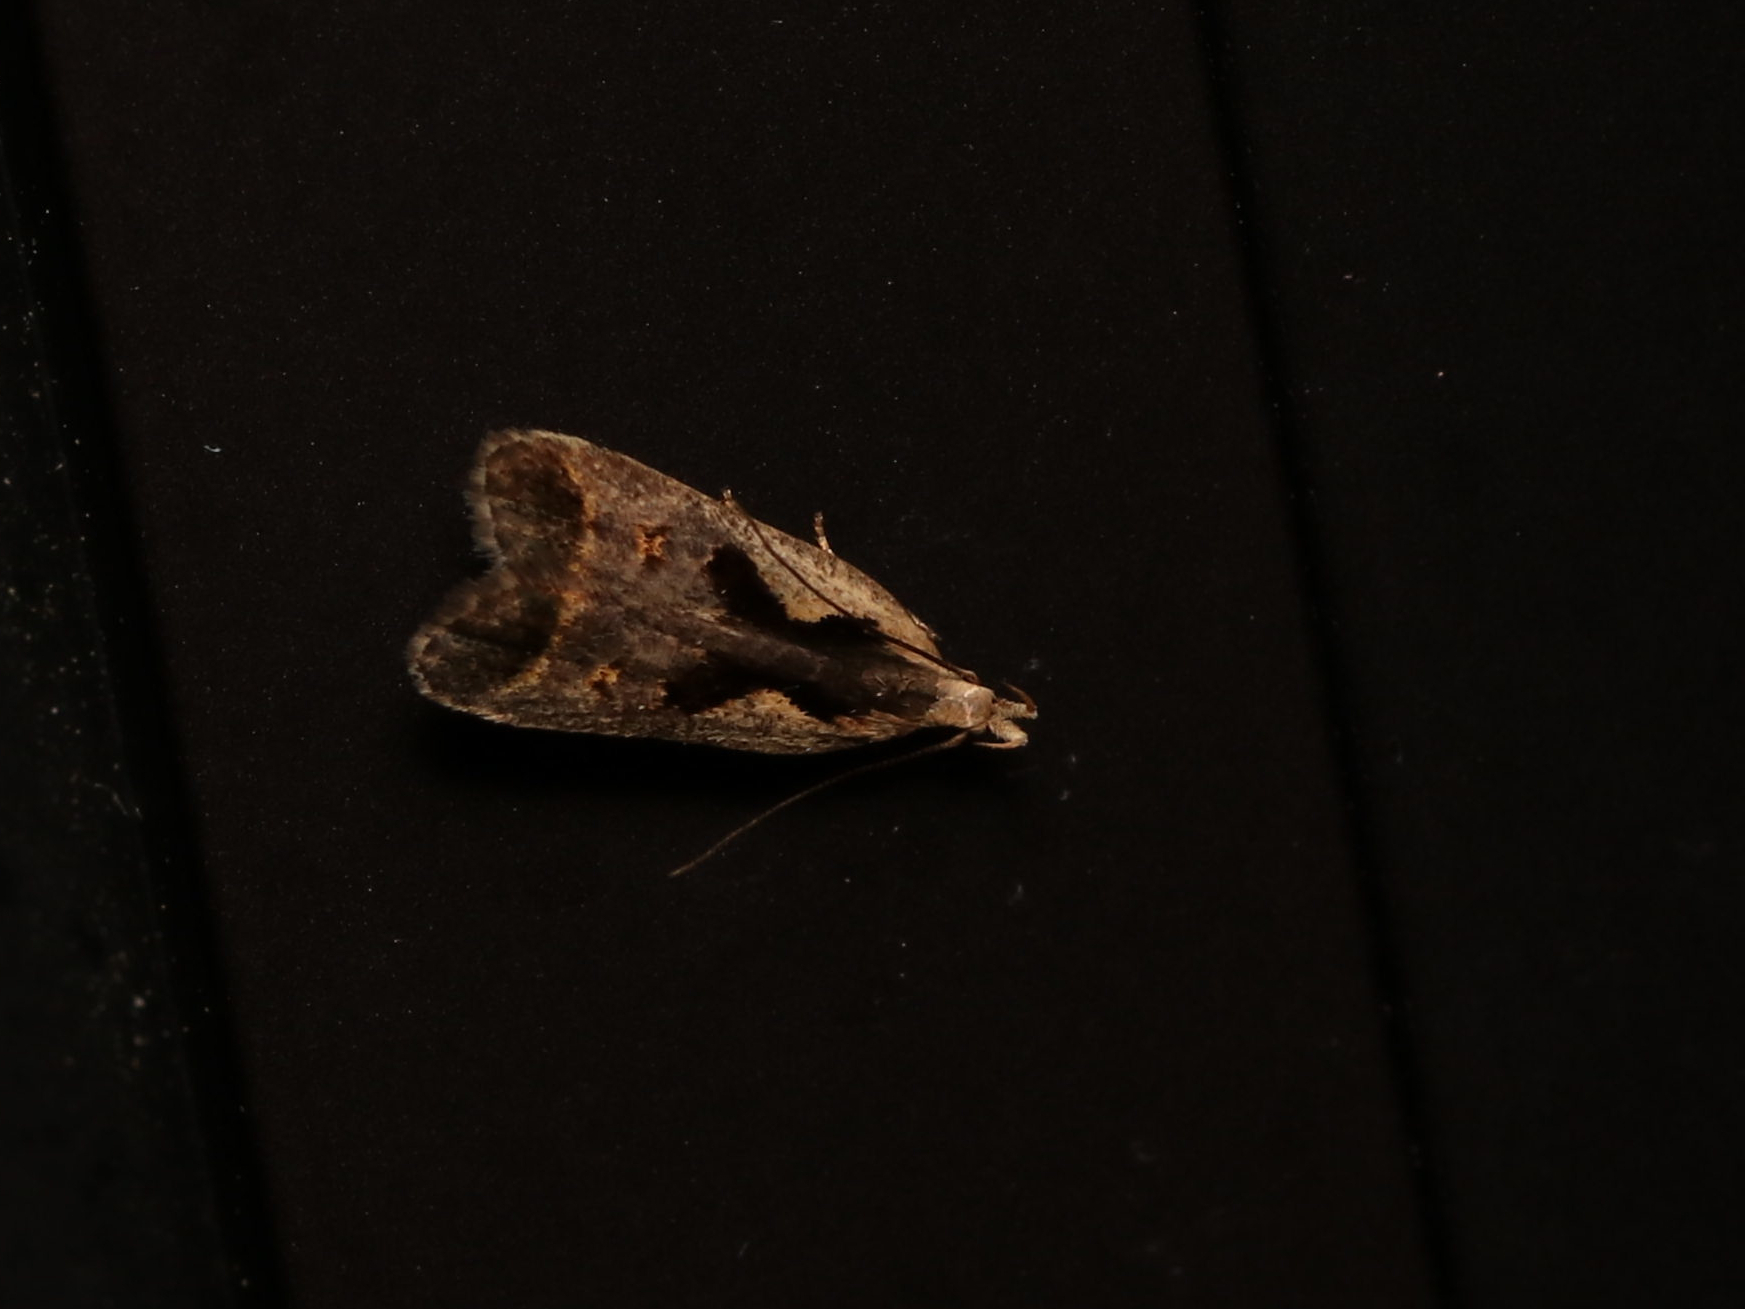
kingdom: Animalia
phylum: Arthropoda
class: Insecta
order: Lepidoptera
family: Gelechiidae
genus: Dichomeris
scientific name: Dichomeris bilobella
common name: Bilobed dichomeris moth
